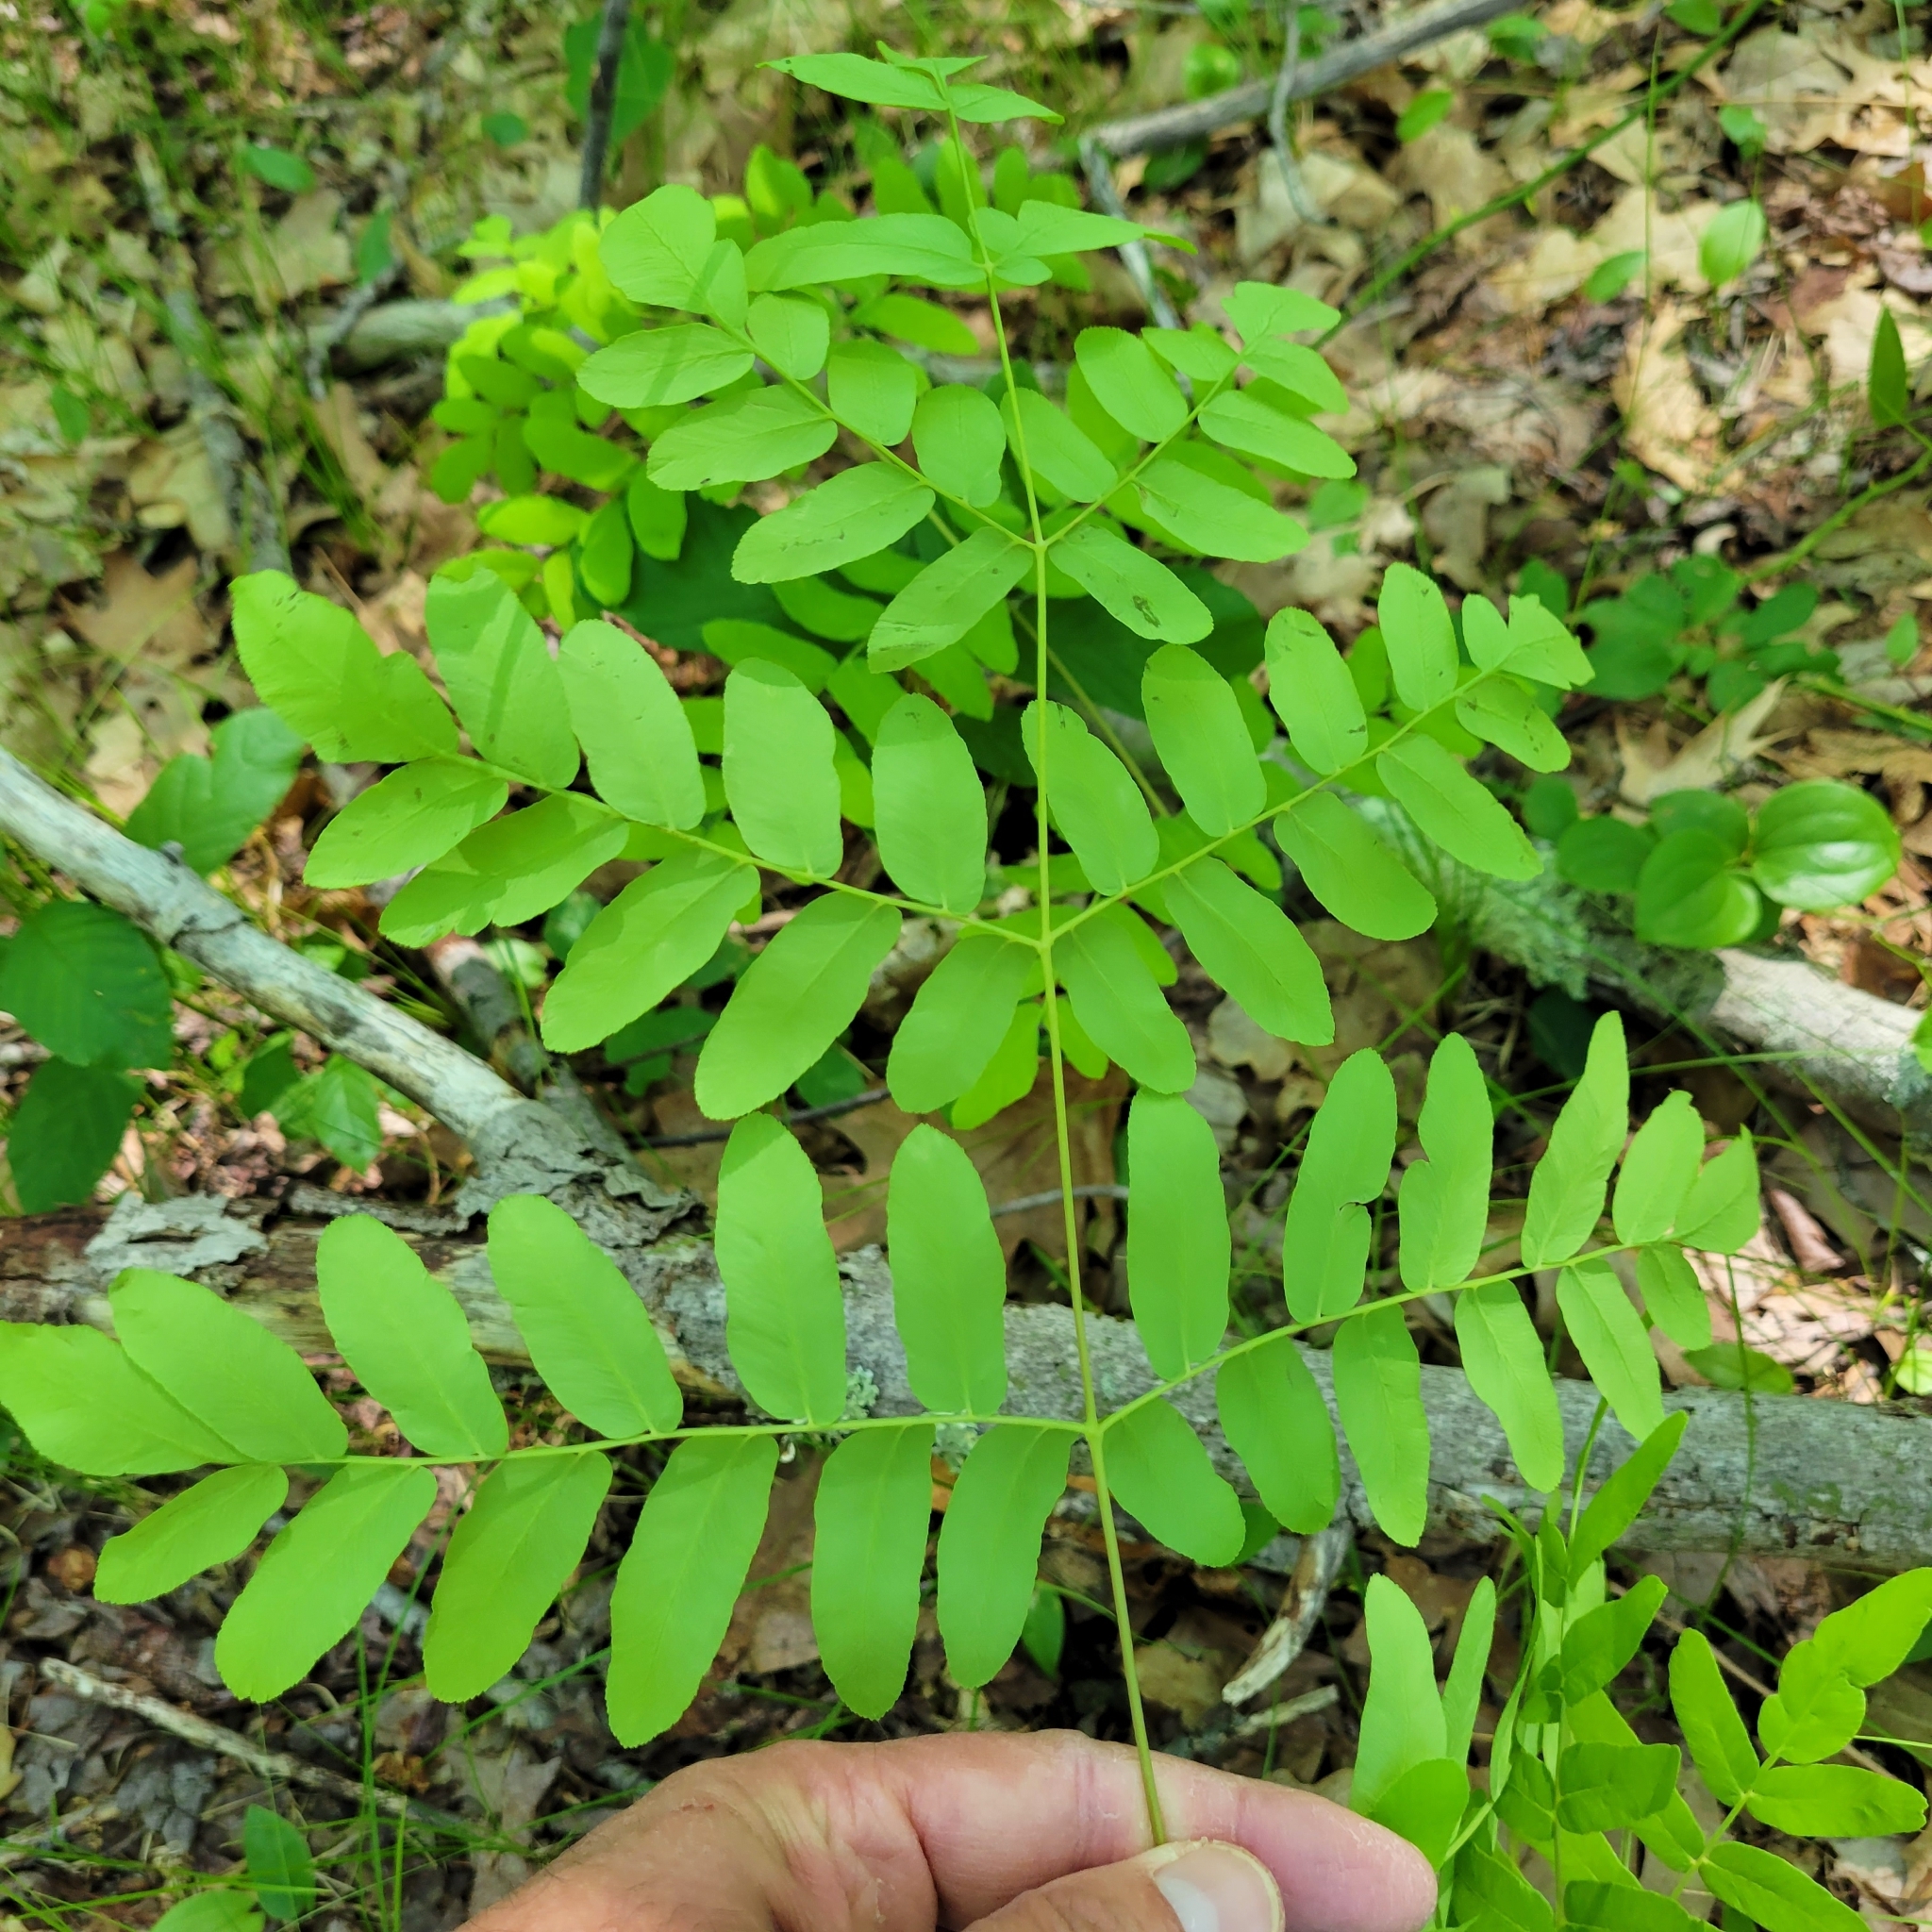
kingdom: Plantae
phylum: Tracheophyta
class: Polypodiopsida
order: Osmundales
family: Osmundaceae
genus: Osmunda
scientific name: Osmunda spectabilis
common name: American royal fern
